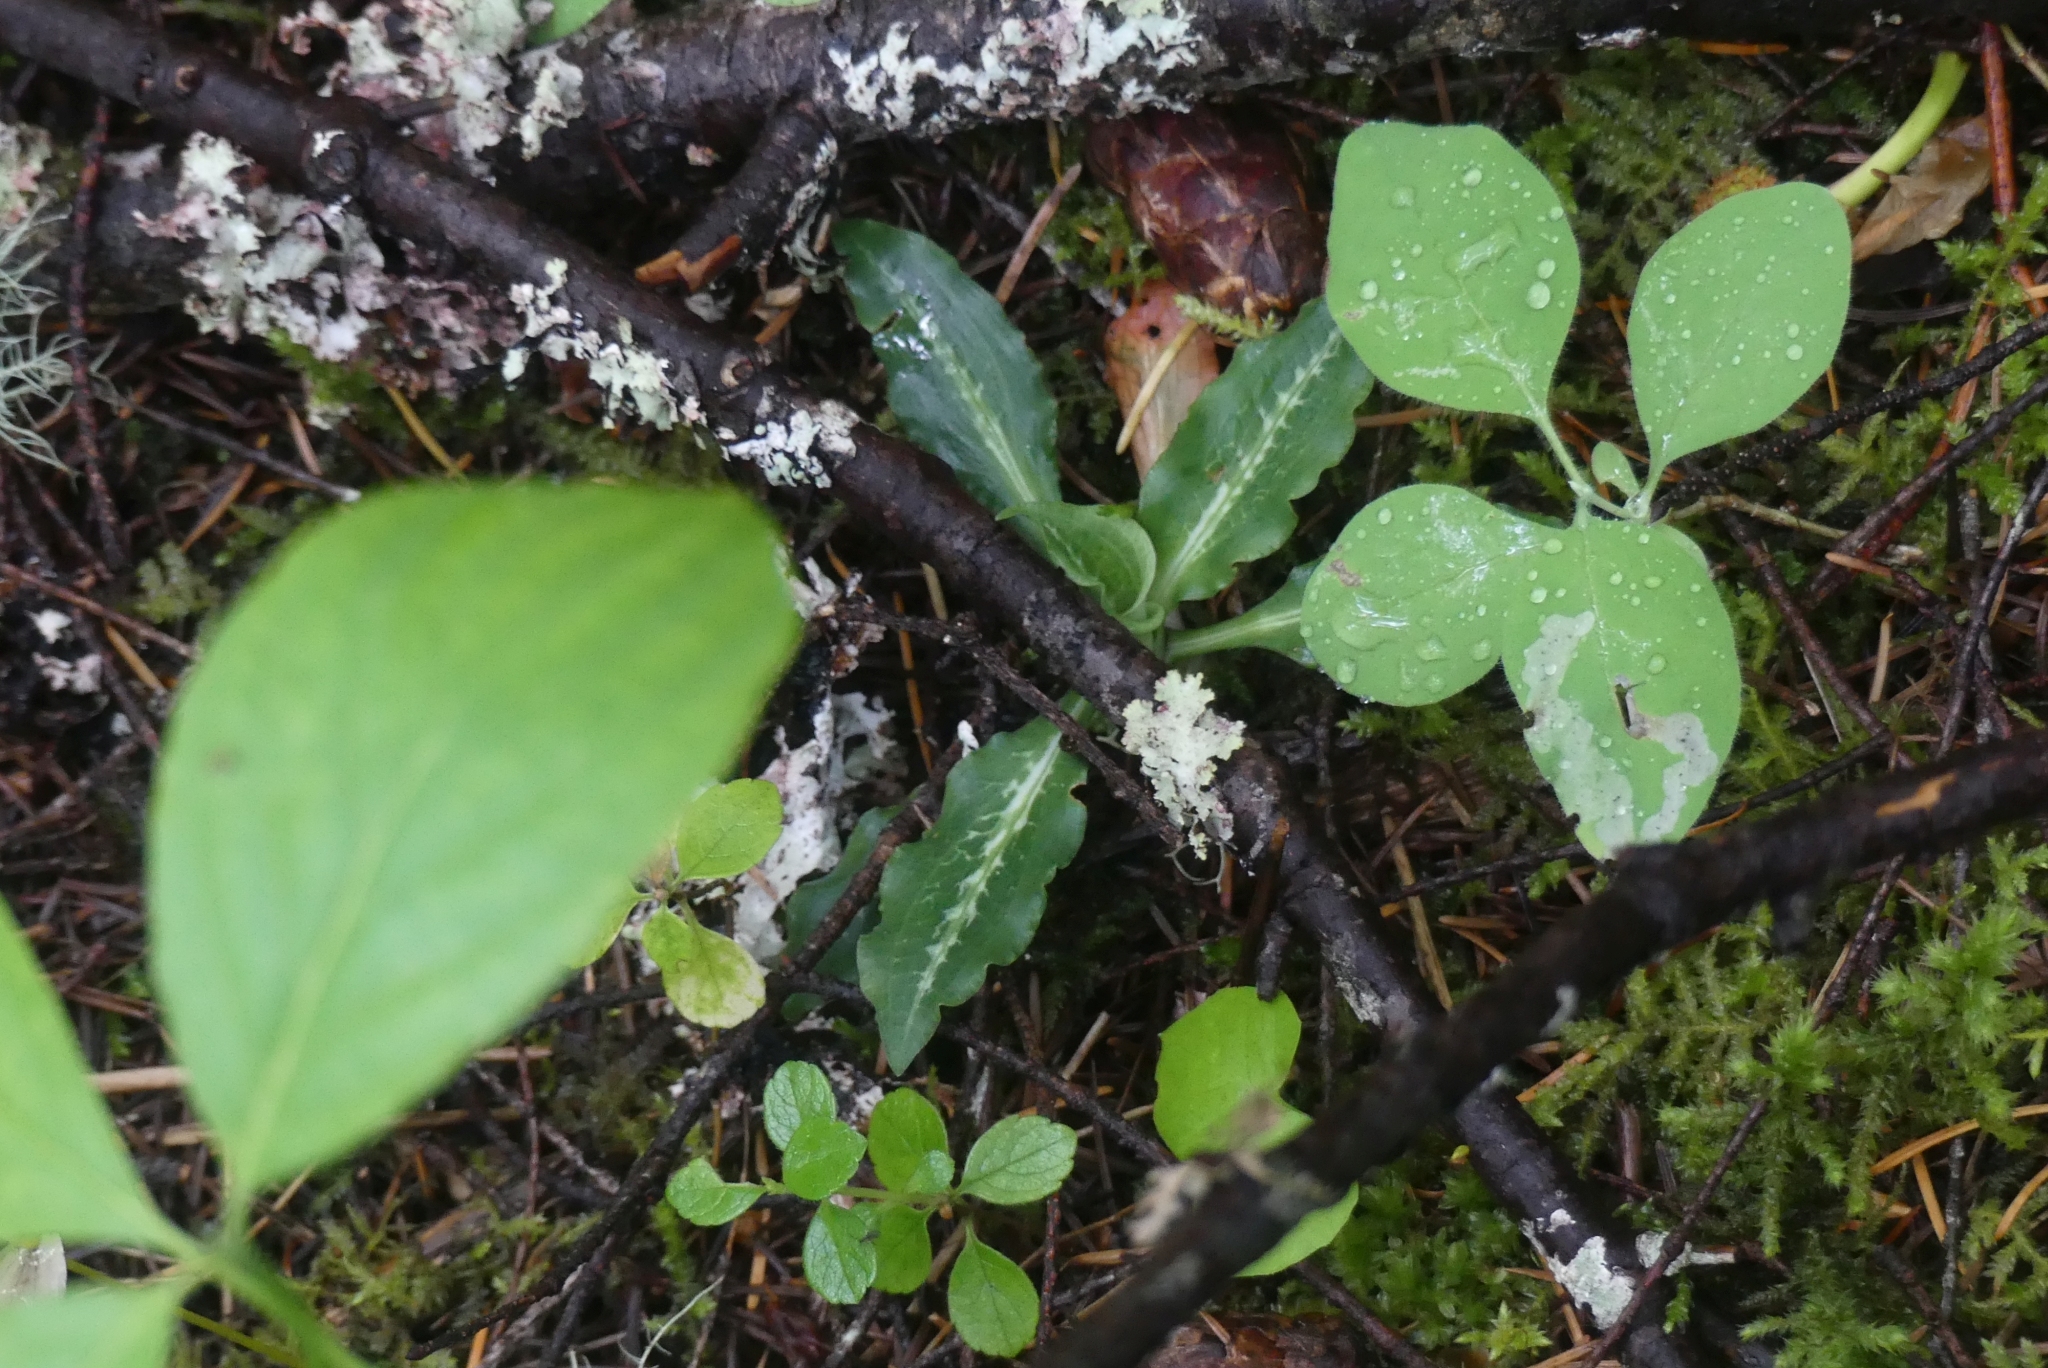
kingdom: Plantae
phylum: Tracheophyta
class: Liliopsida
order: Asparagales
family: Orchidaceae
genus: Goodyera
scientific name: Goodyera oblongifolia
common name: Giant rattlesnake-plantain
